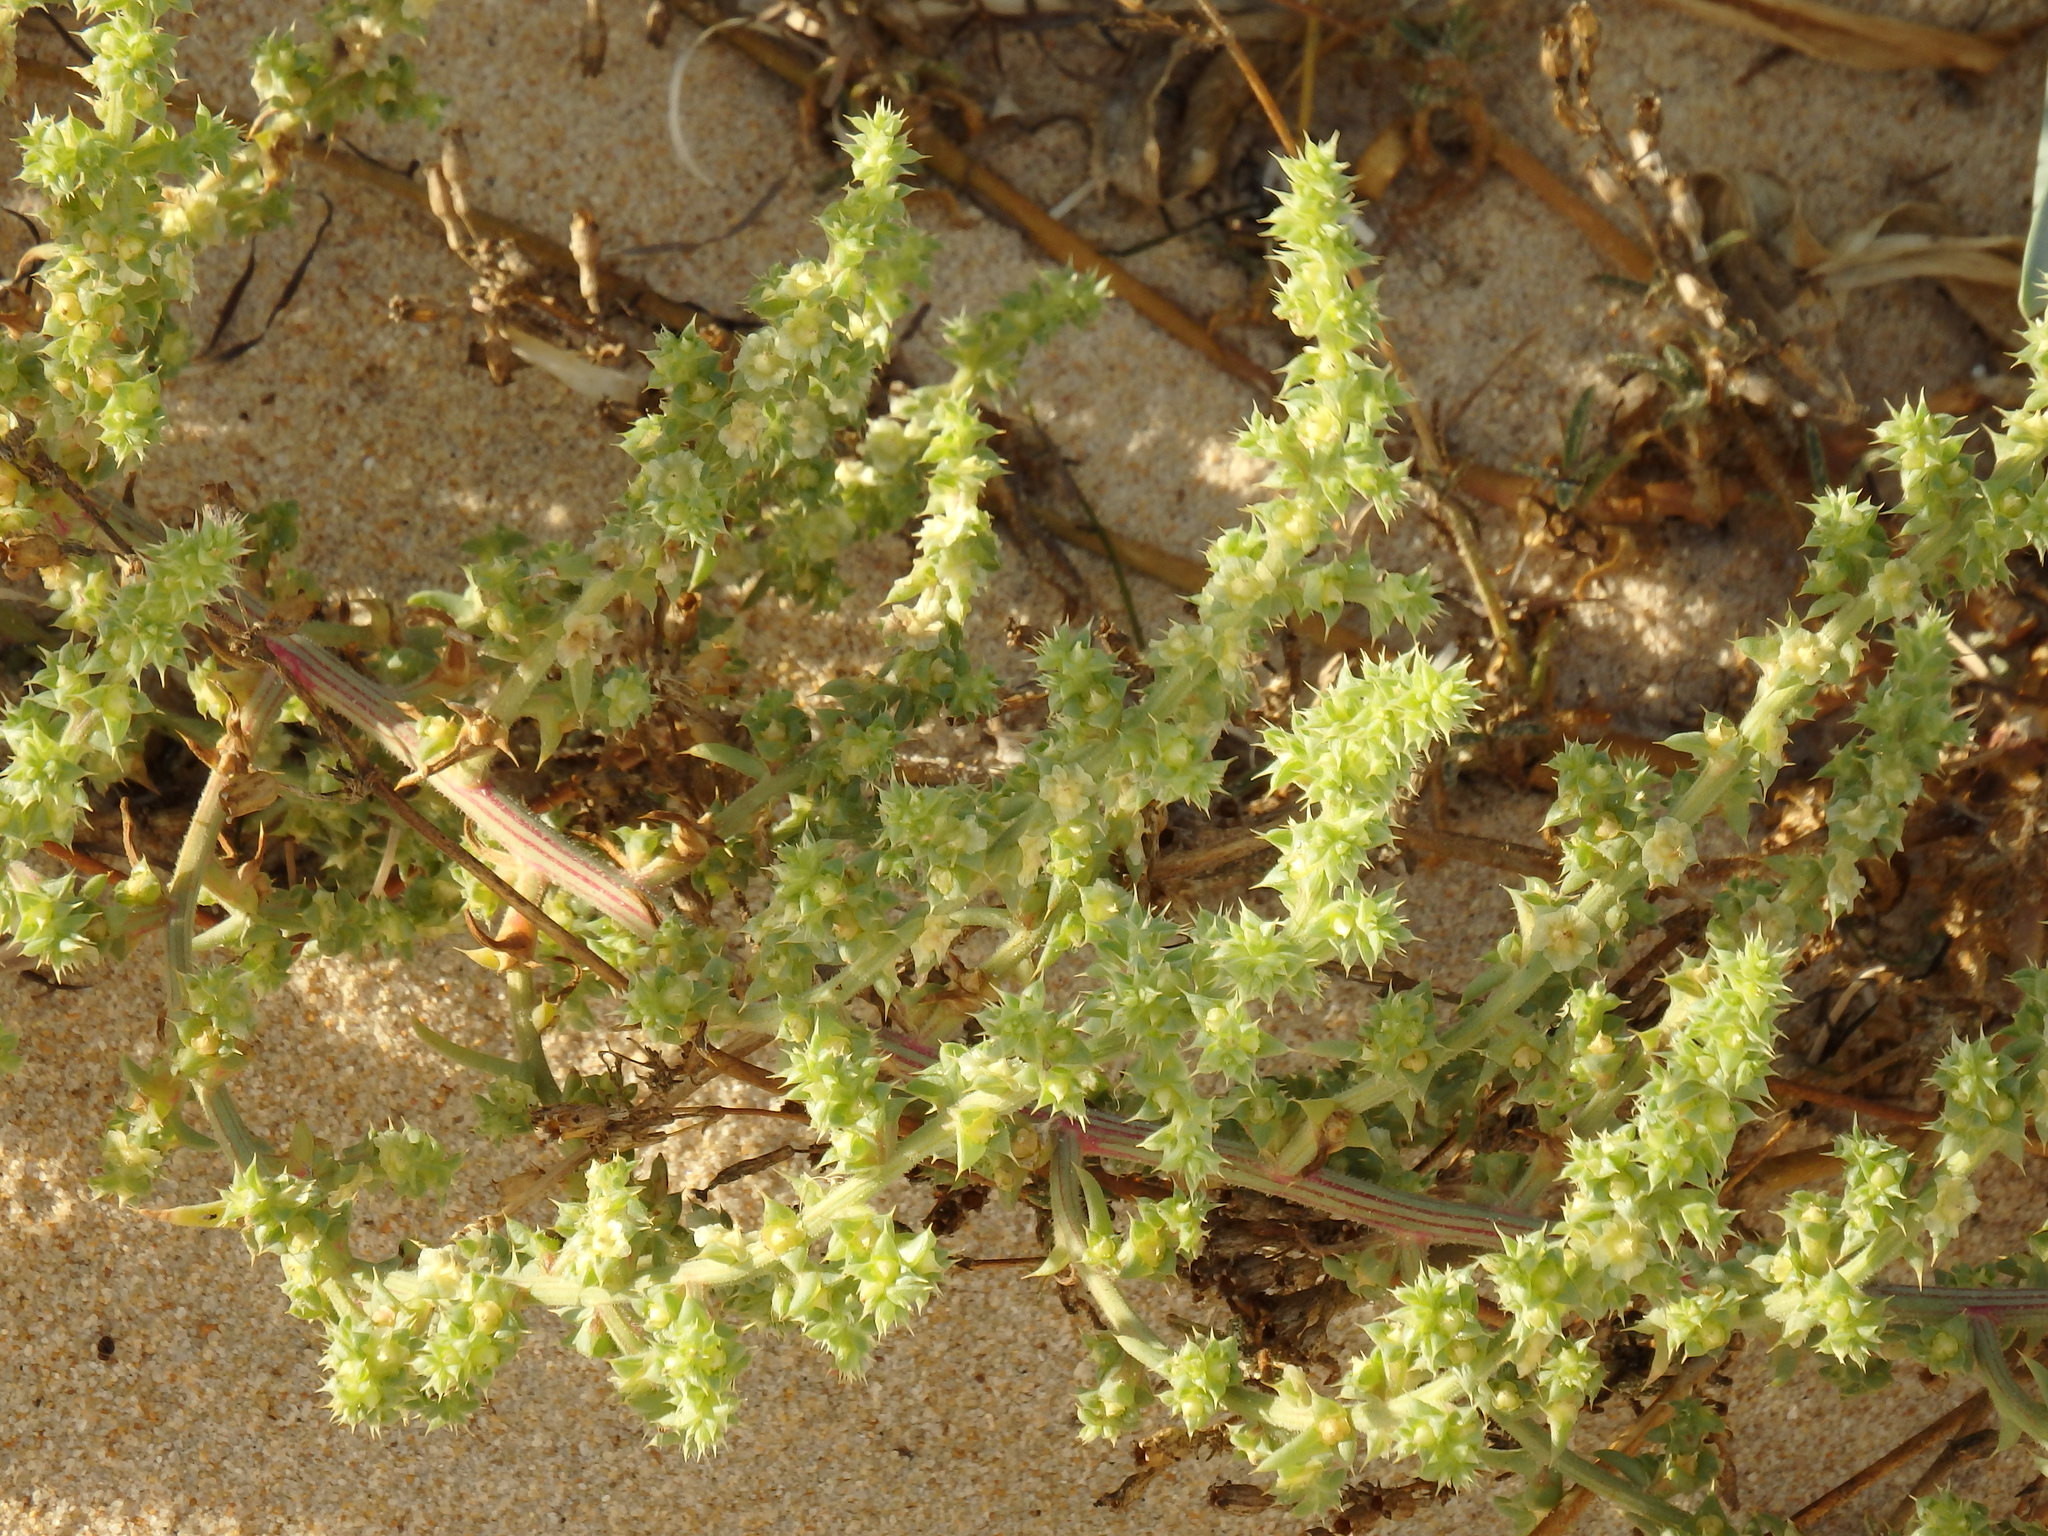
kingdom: Plantae
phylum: Tracheophyta
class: Magnoliopsida
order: Caryophyllales
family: Amaranthaceae
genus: Salsola
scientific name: Salsola kali
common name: Saltwort
